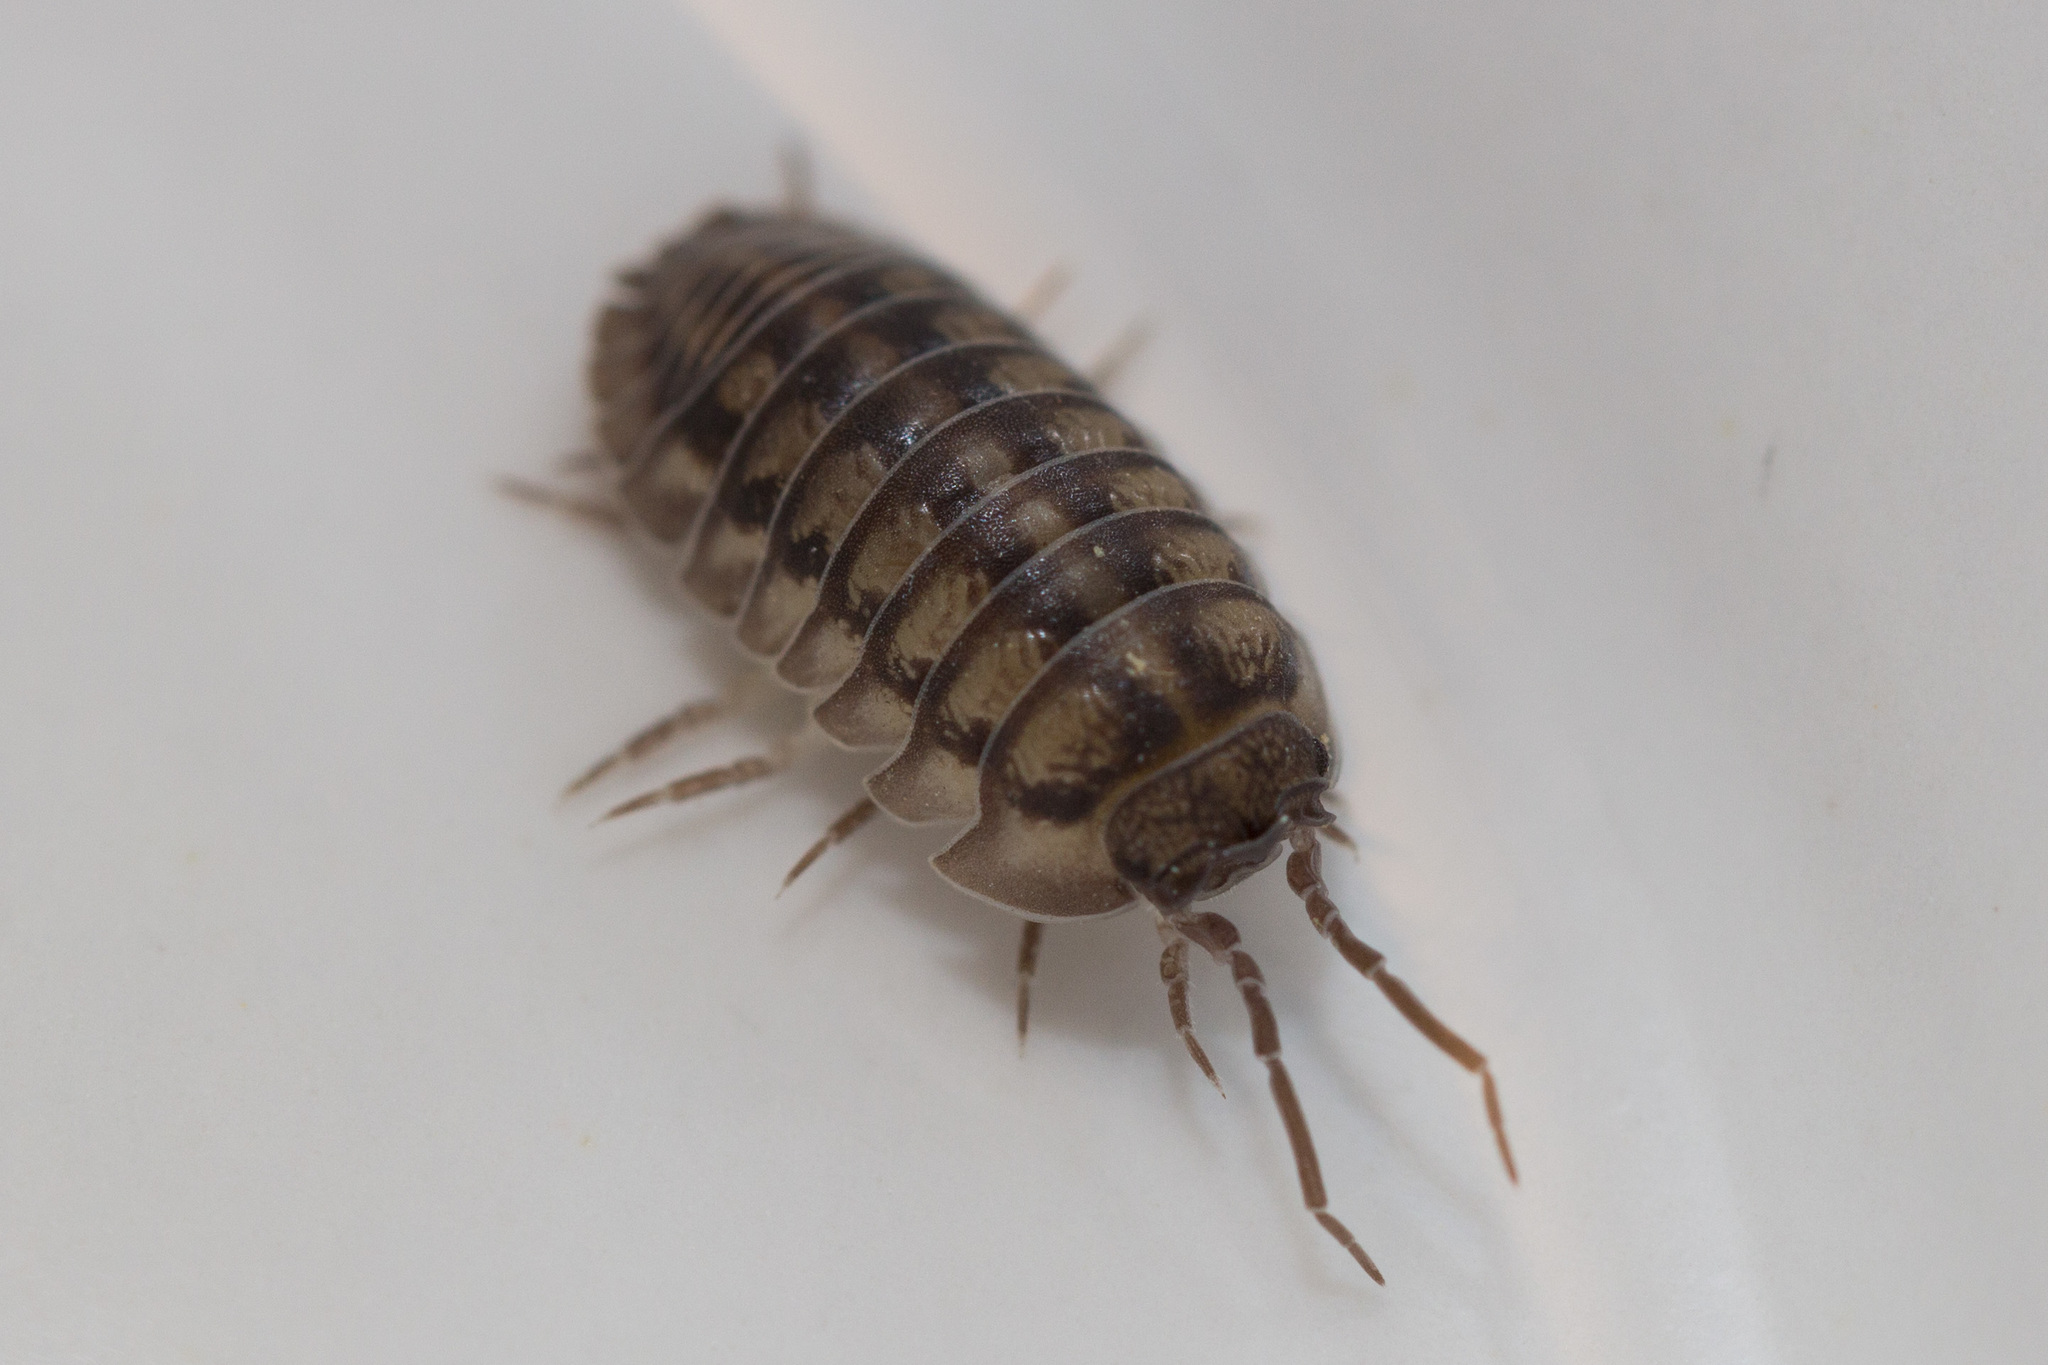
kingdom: Animalia
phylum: Arthropoda
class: Malacostraca
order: Isopoda
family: Armadillidiidae
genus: Armadillidium
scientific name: Armadillidium nasatum
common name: Isopod
